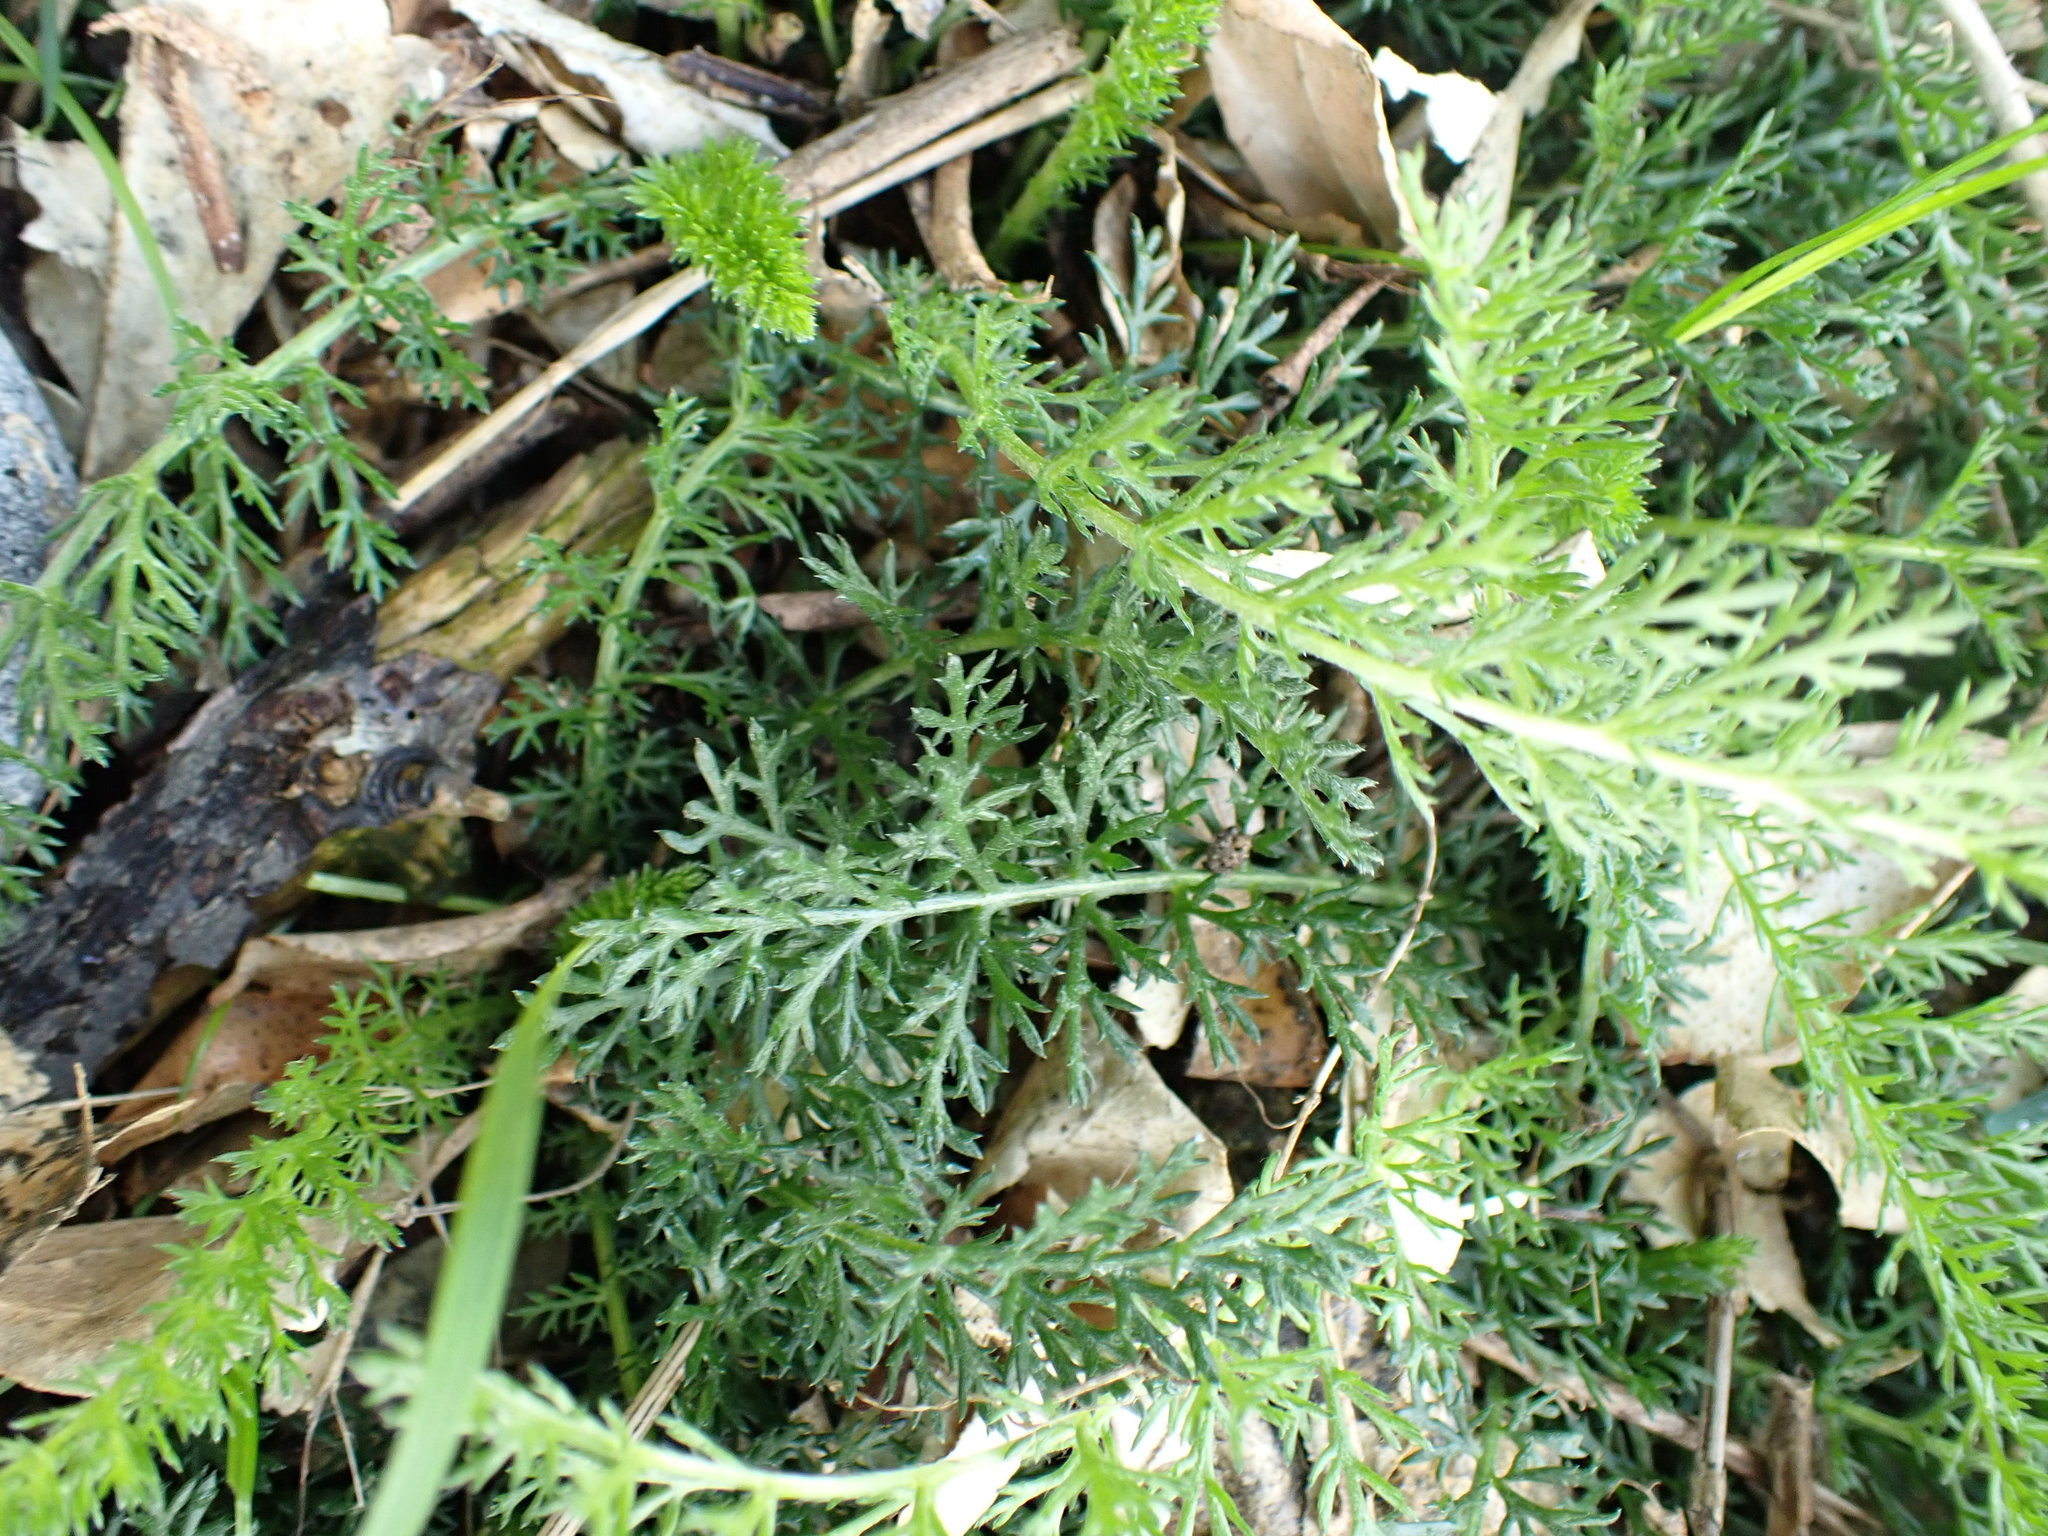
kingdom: Plantae
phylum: Tracheophyta
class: Magnoliopsida
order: Asterales
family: Asteraceae
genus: Achillea
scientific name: Achillea millefolium
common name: Yarrow
